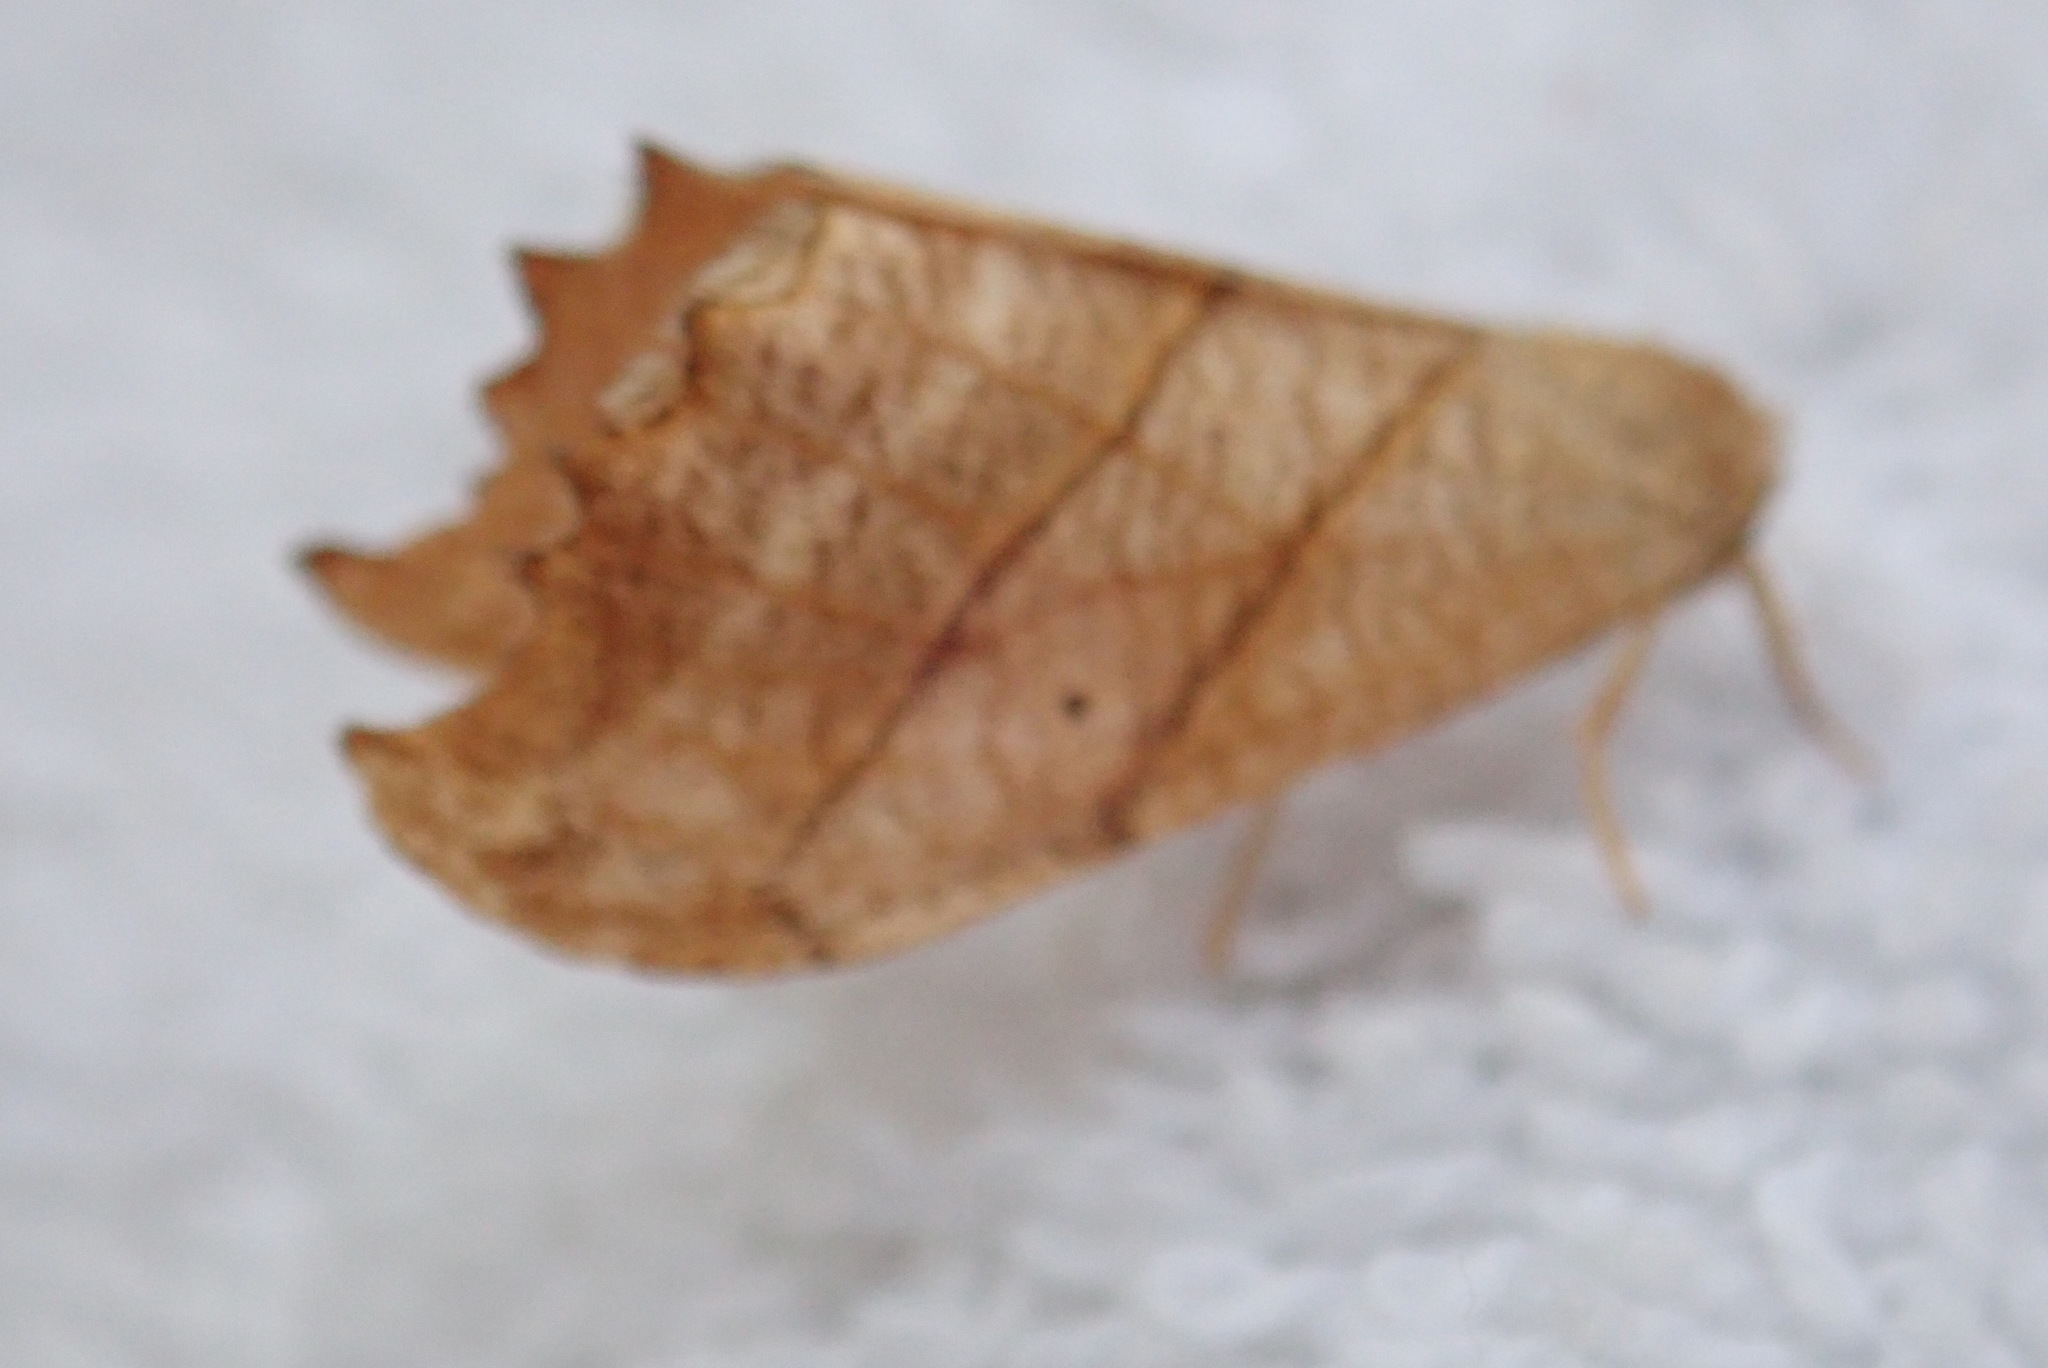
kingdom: Animalia
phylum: Arthropoda
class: Insecta
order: Lepidoptera
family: Drepanidae
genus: Falcaria
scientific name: Falcaria bilineata
